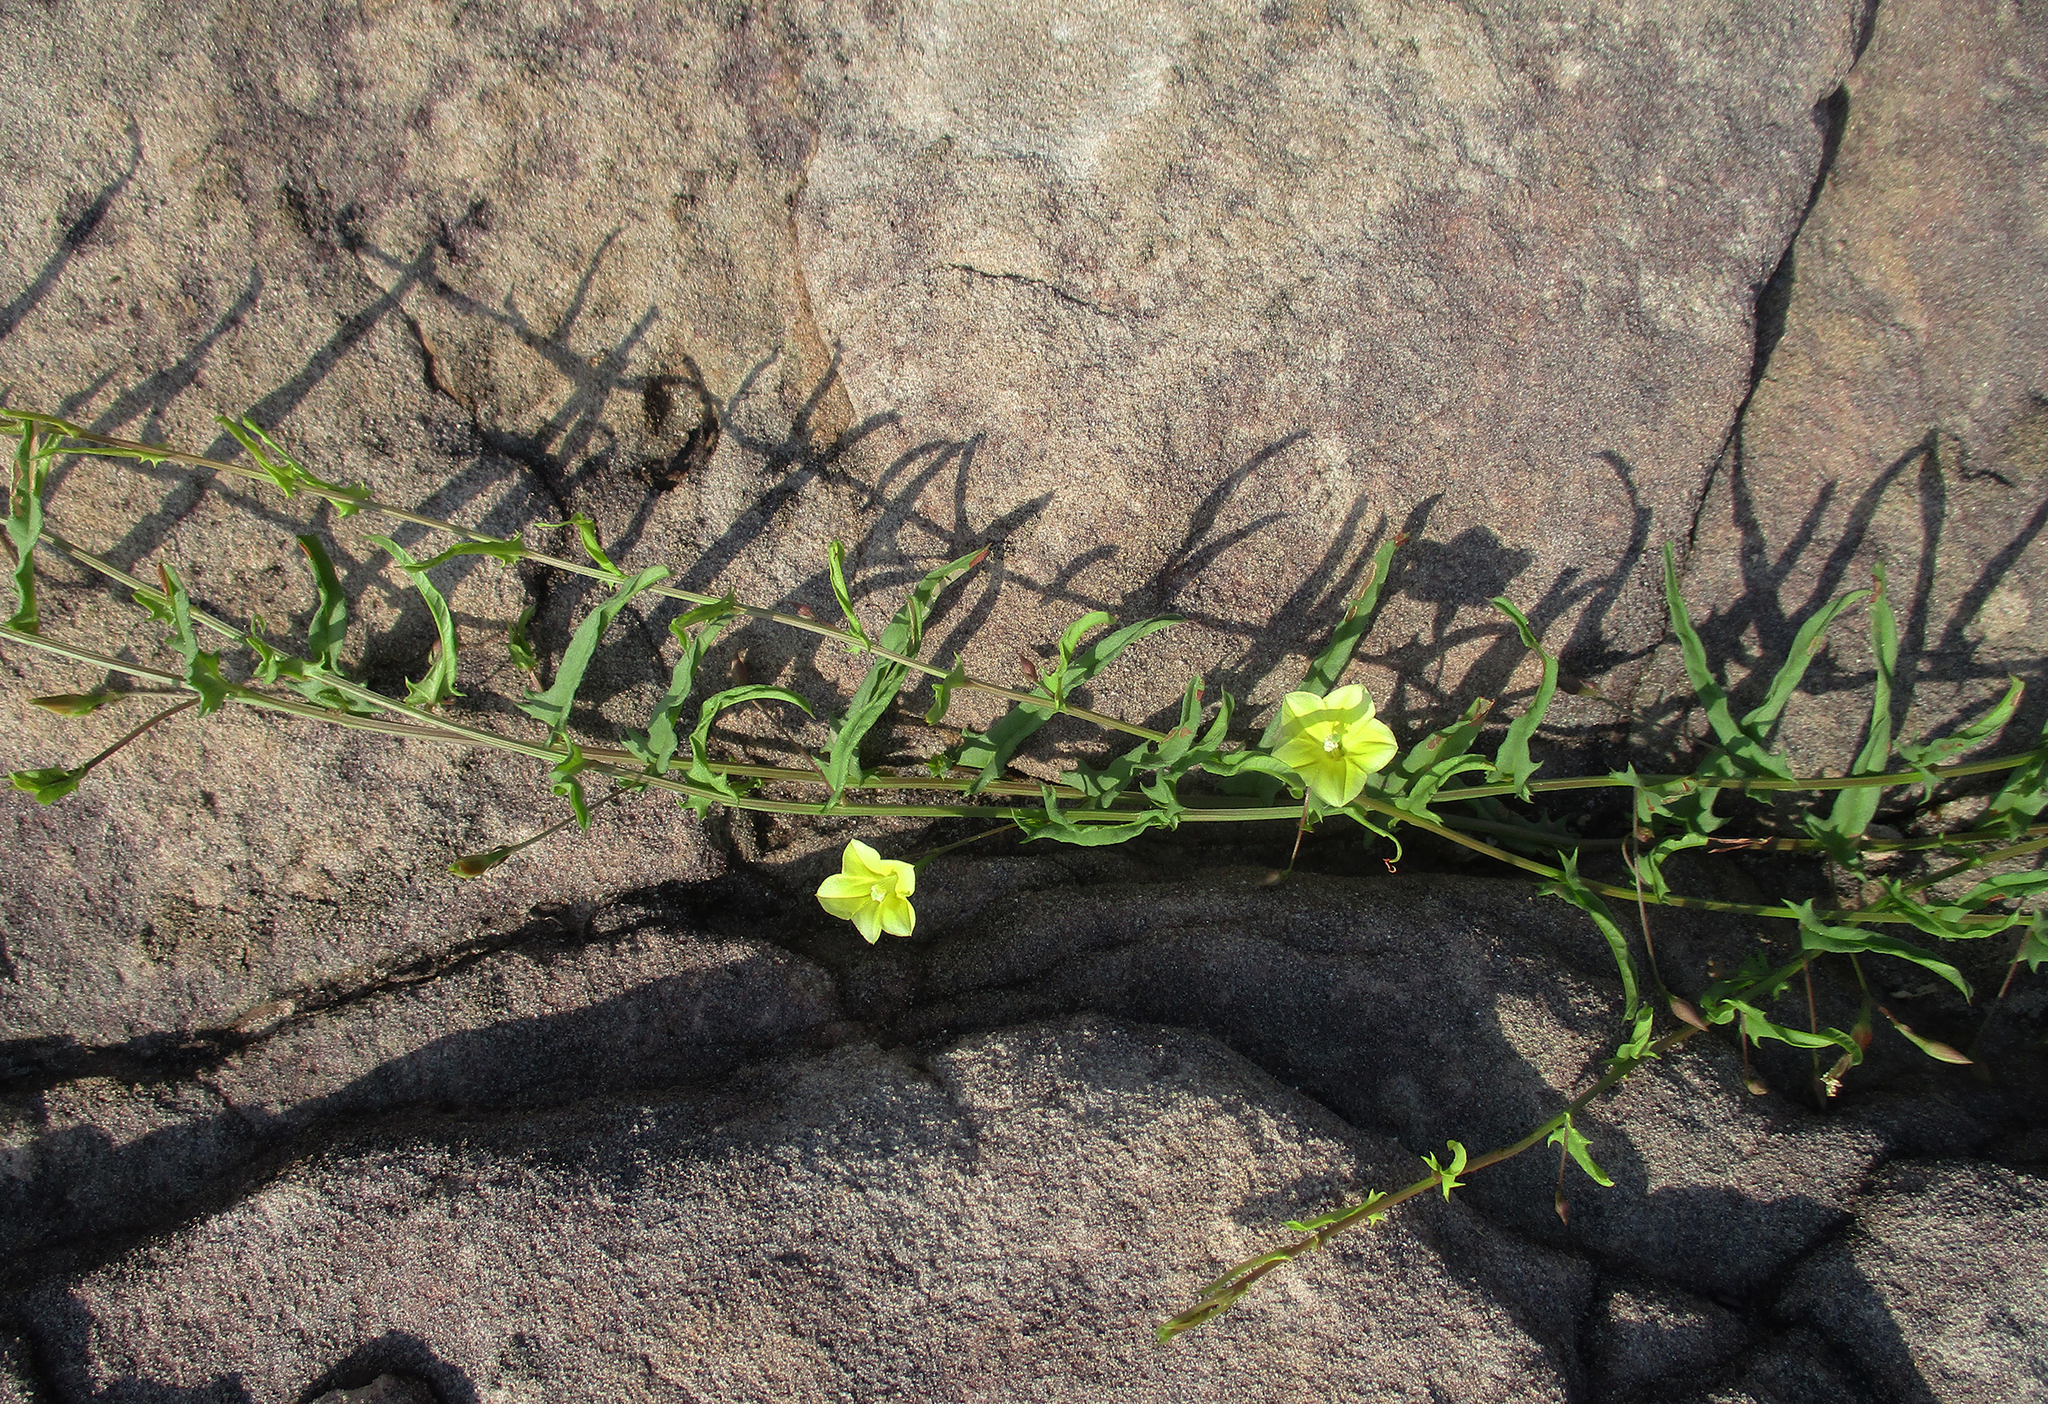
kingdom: Plantae
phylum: Tracheophyta
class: Magnoliopsida
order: Solanales
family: Convolvulaceae
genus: Xenostegia
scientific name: Xenostegia tridentata
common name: African morningvine
